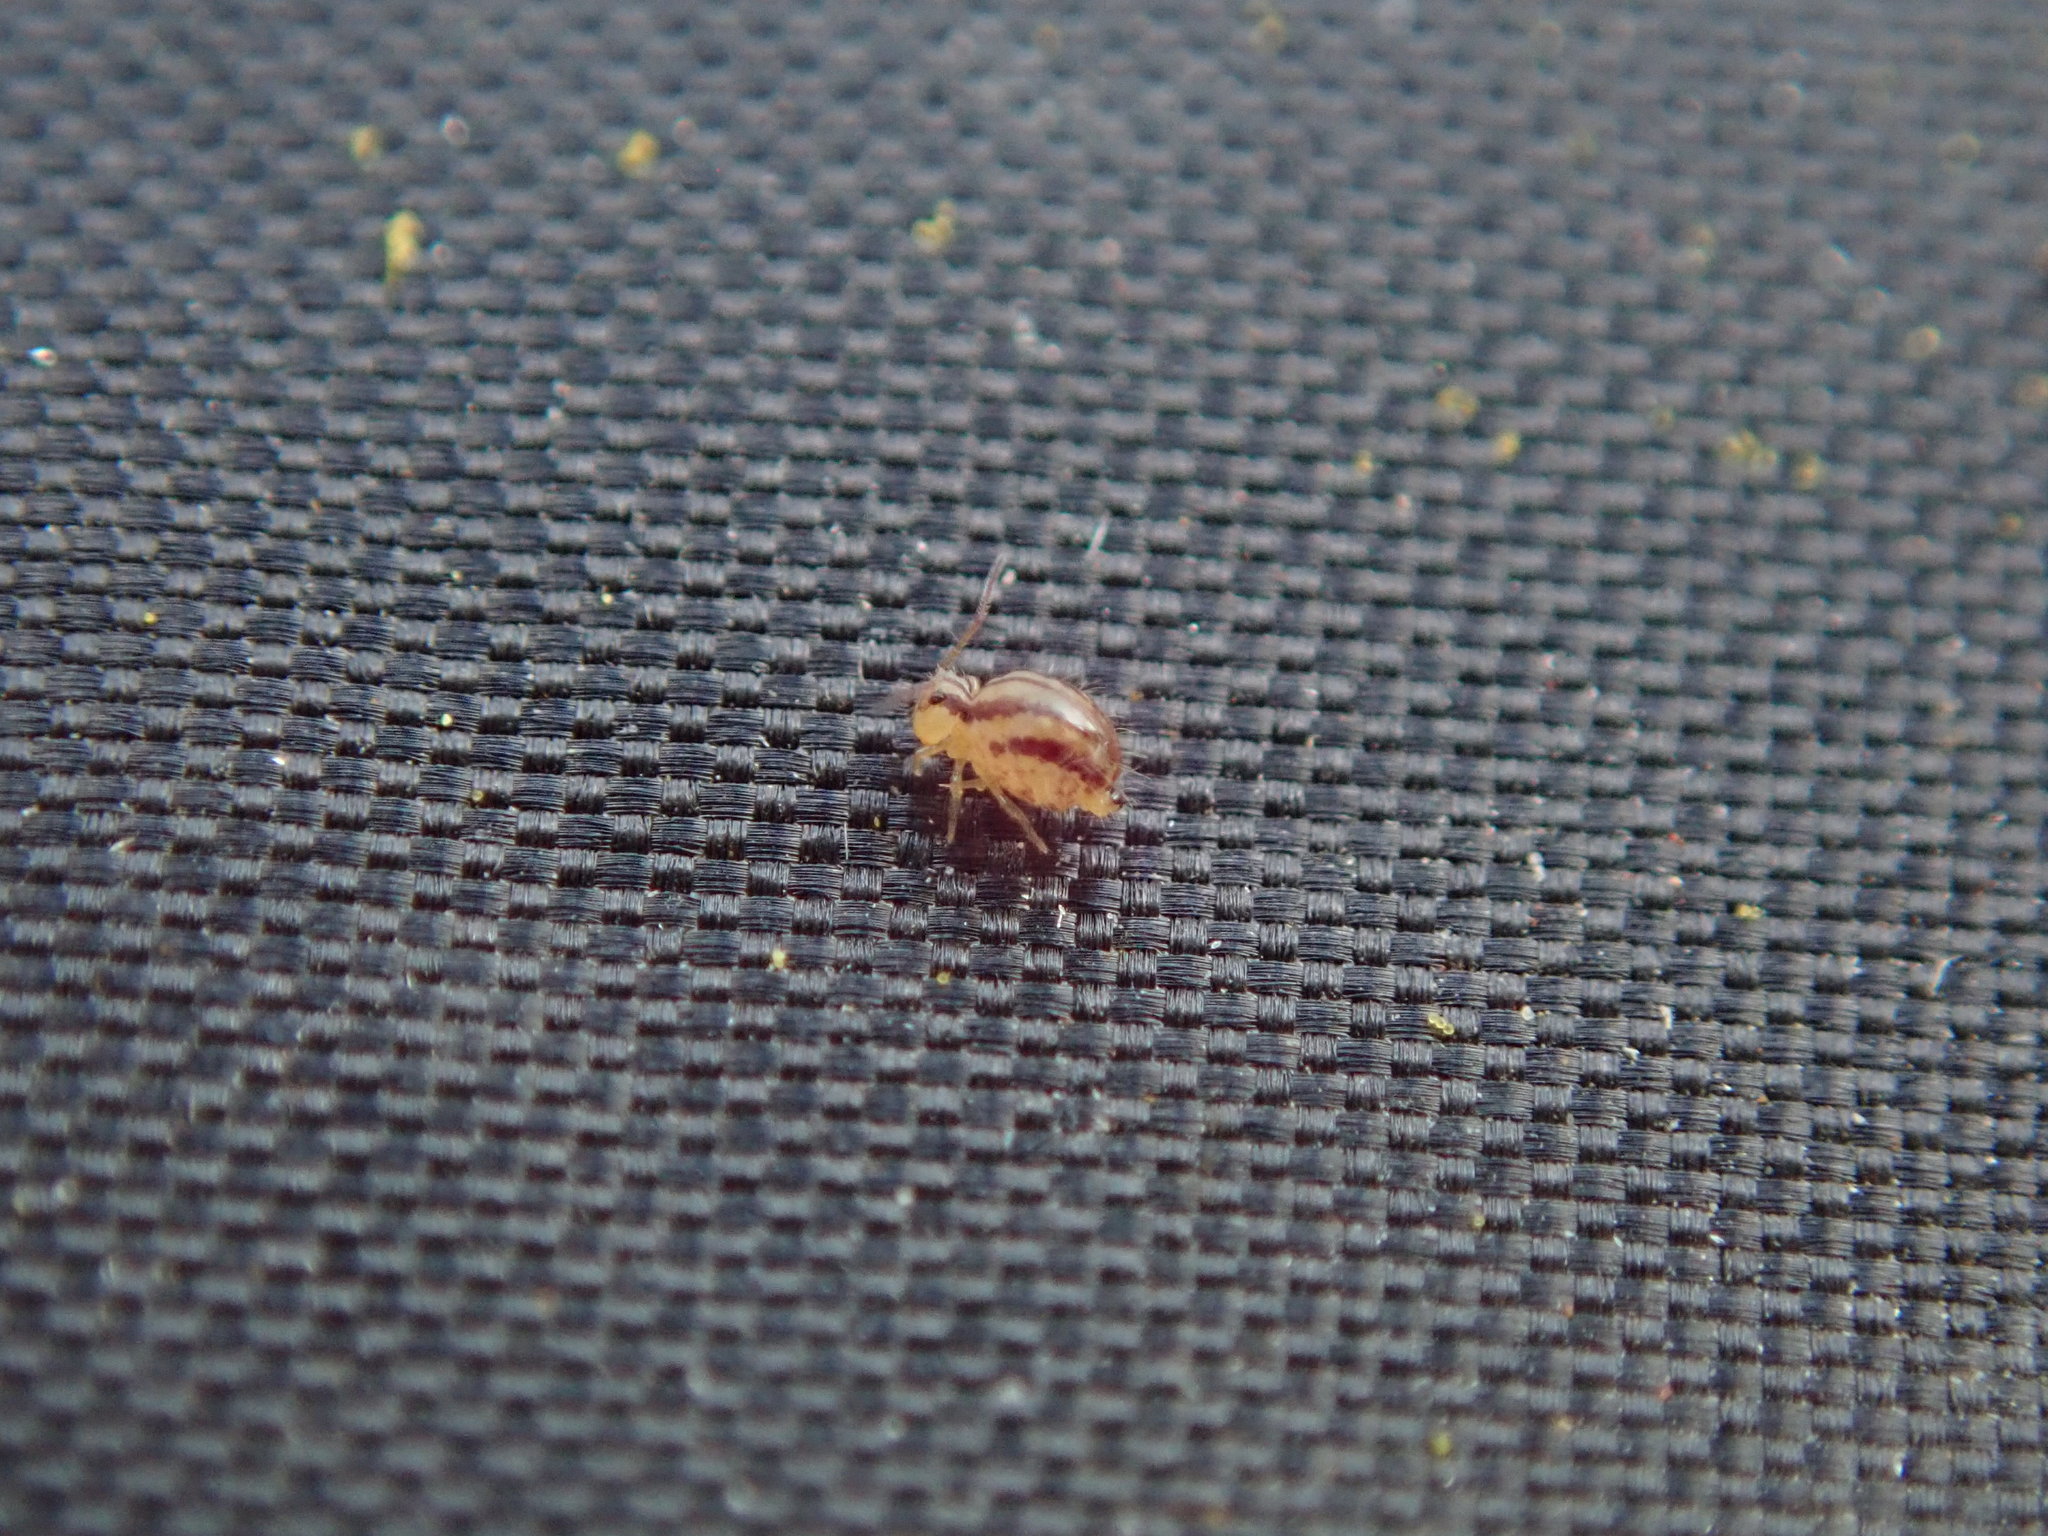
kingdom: Animalia
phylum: Arthropoda
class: Collembola
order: Symphypleona
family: Sminthuridae
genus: Sminthurus
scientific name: Sminthurus mencenbergae
